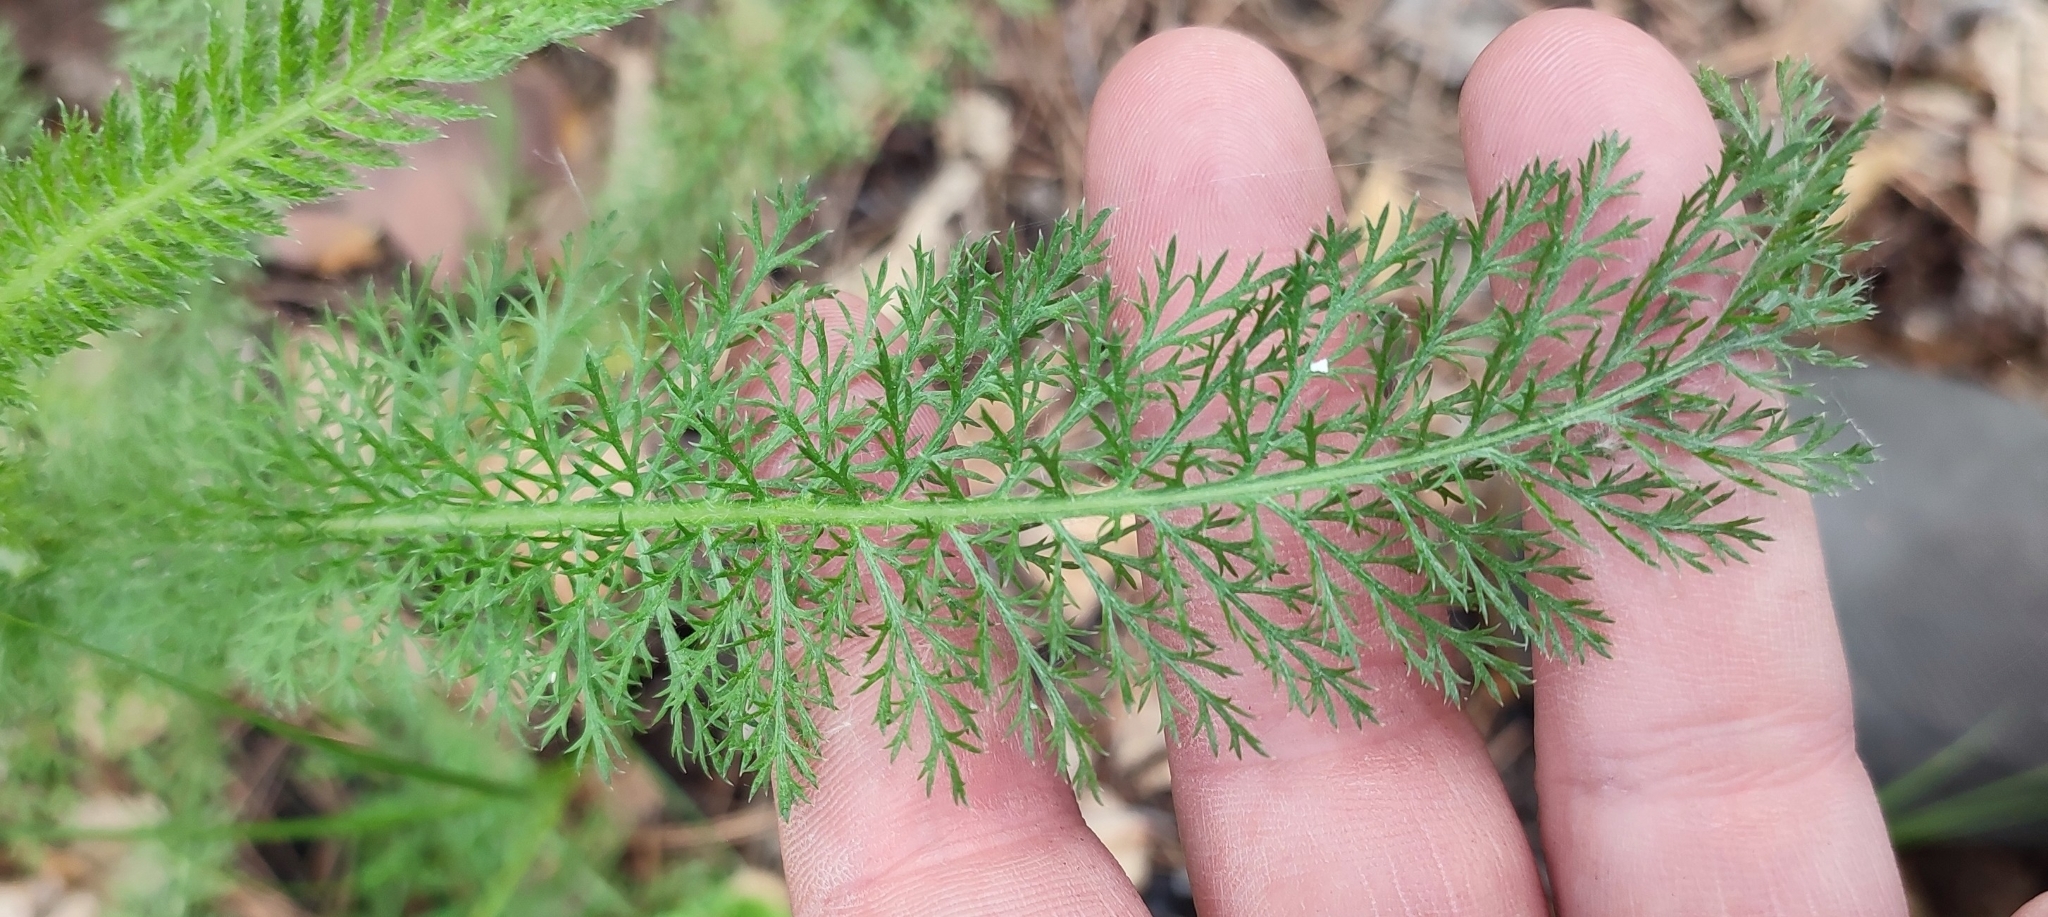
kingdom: Plantae
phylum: Tracheophyta
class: Magnoliopsida
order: Asterales
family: Asteraceae
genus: Achillea
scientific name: Achillea asiatica
